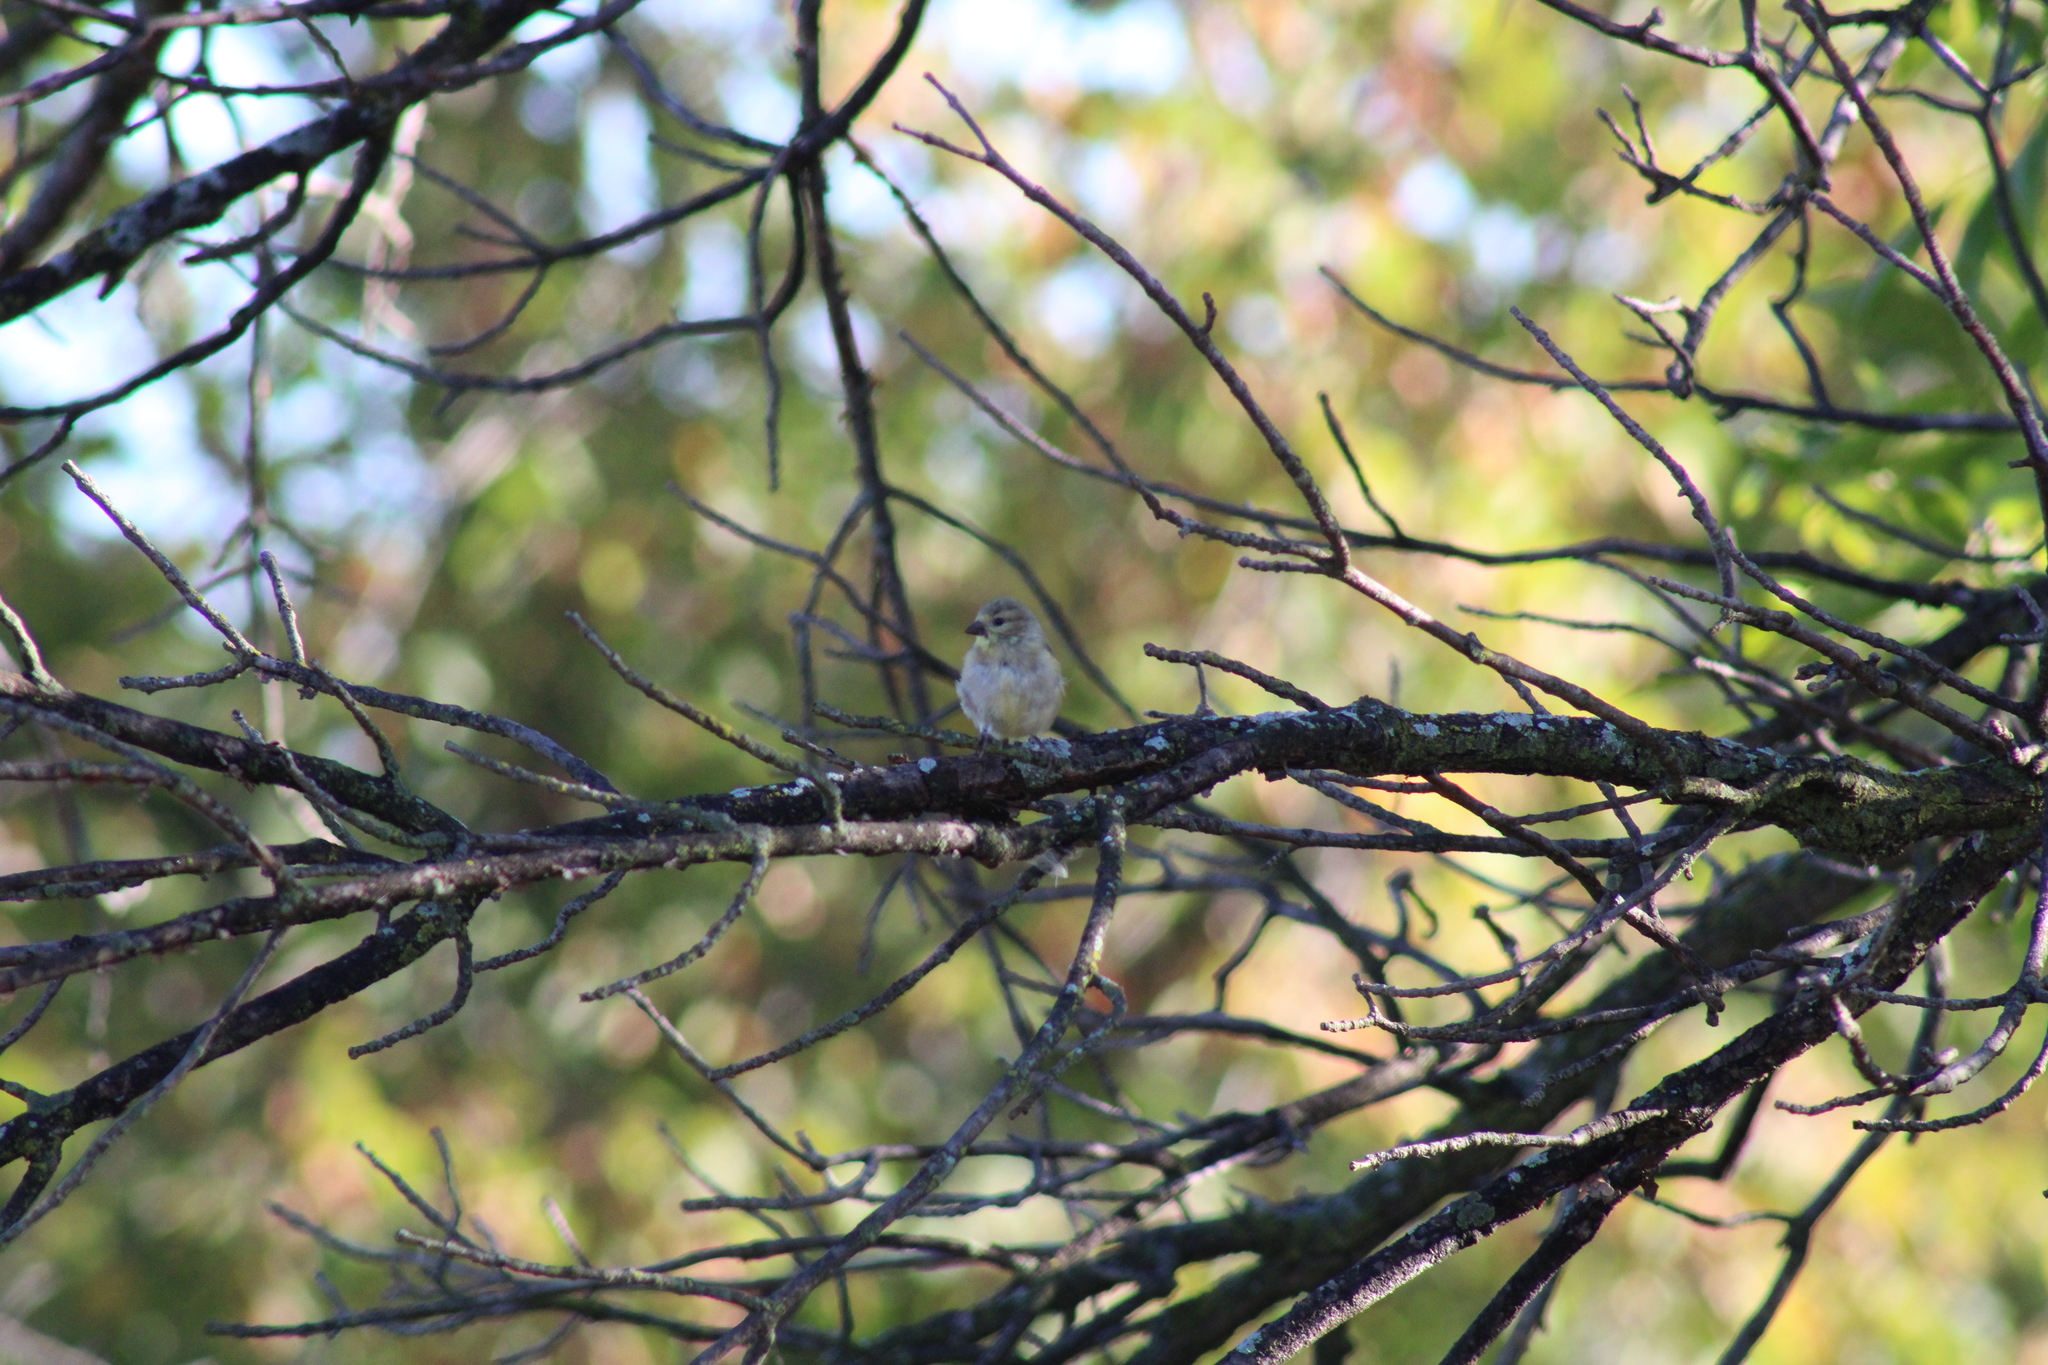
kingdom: Animalia
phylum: Chordata
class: Aves
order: Passeriformes
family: Fringillidae
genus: Spinus
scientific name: Spinus tristis
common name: American goldfinch
